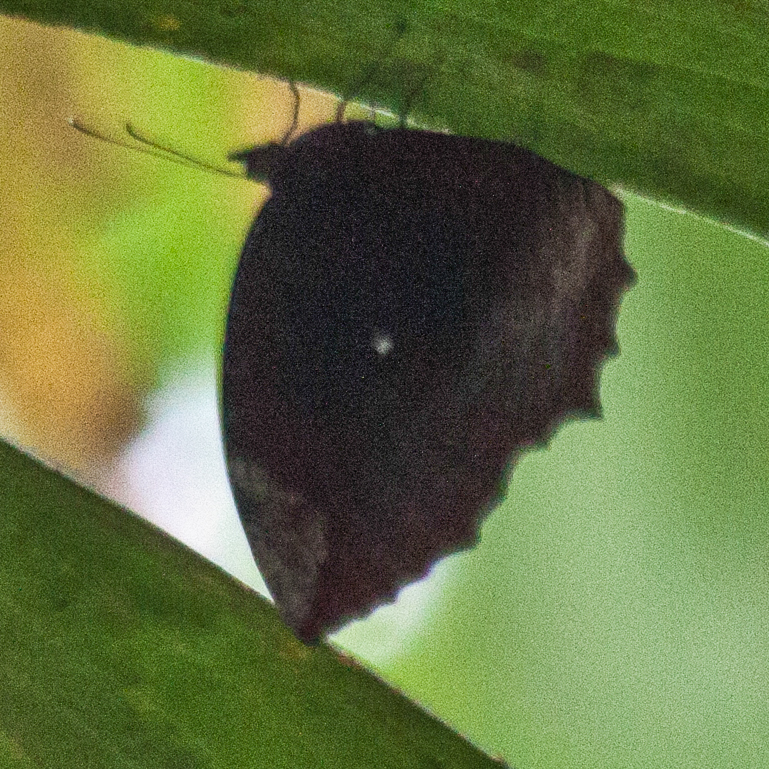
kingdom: Animalia
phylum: Arthropoda
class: Insecta
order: Lepidoptera
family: Nymphalidae
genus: Elymnias
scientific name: Elymnias hypermnestra
